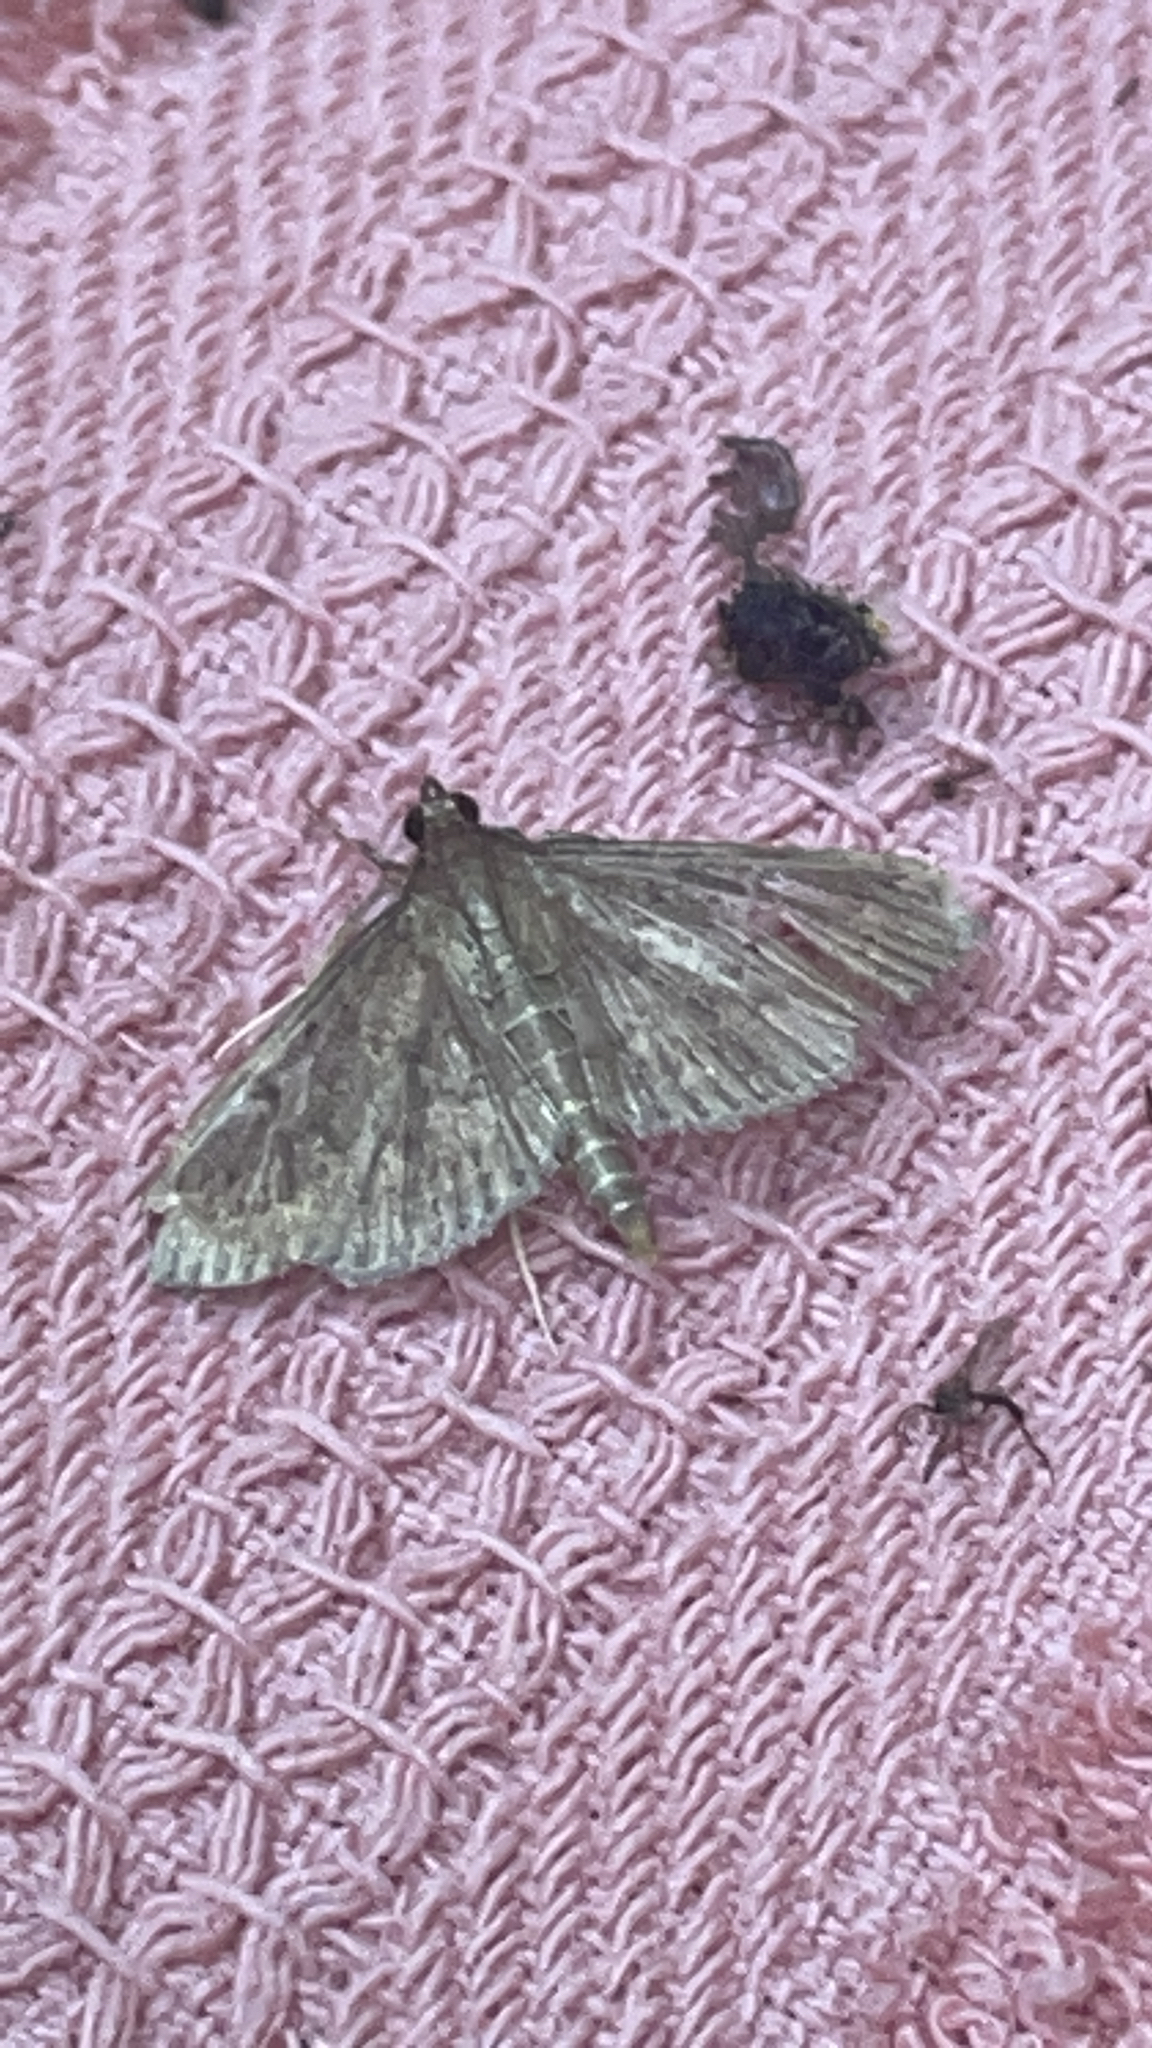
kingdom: Animalia
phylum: Arthropoda
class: Insecta
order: Lepidoptera
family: Crambidae
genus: Herpetogramma
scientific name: Herpetogramma licarsisalis
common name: Grass webworm
